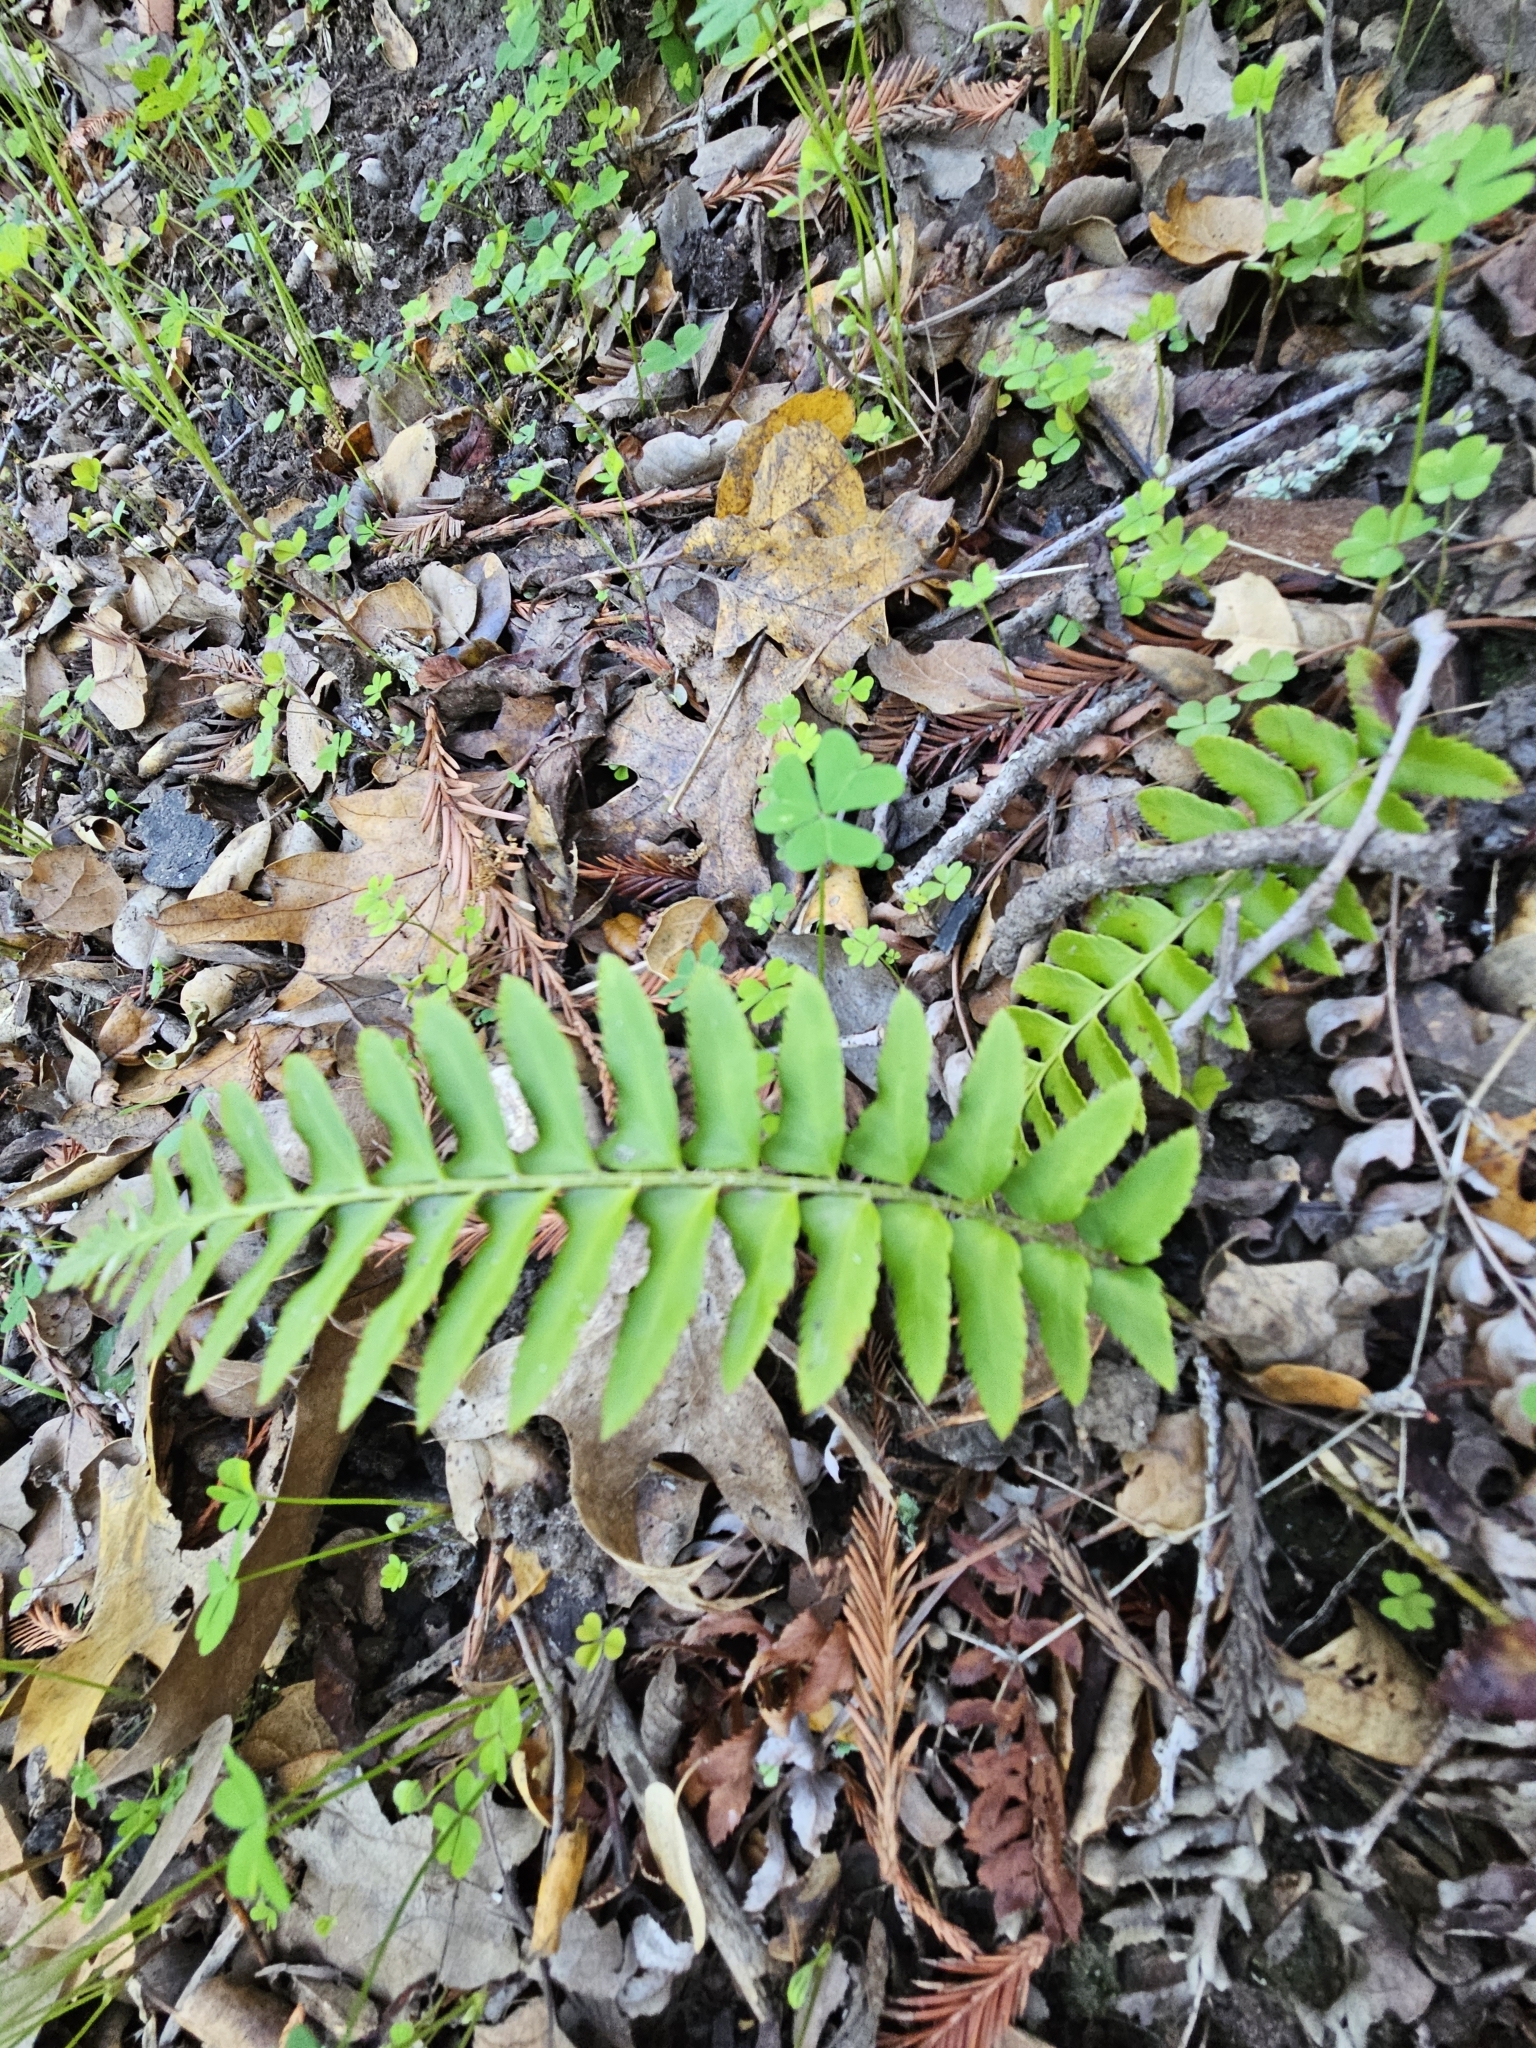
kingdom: Plantae
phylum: Tracheophyta
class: Polypodiopsida
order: Polypodiales
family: Dryopteridaceae
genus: Polystichum
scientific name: Polystichum munitum
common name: Western sword-fern
